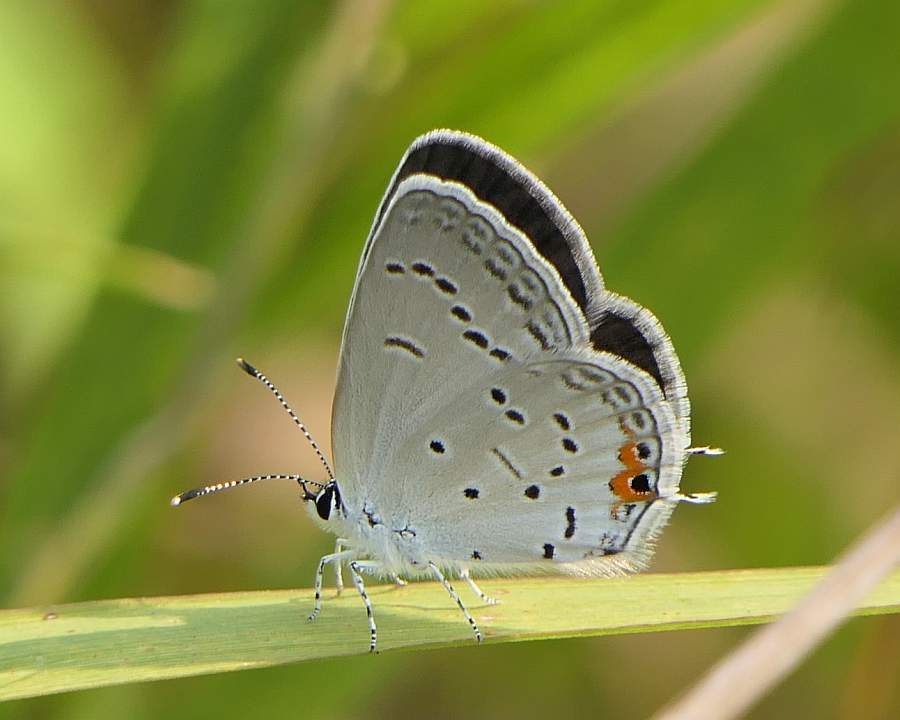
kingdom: Animalia
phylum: Arthropoda
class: Insecta
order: Lepidoptera
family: Lycaenidae
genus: Elkalyce
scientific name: Elkalyce comyntas
